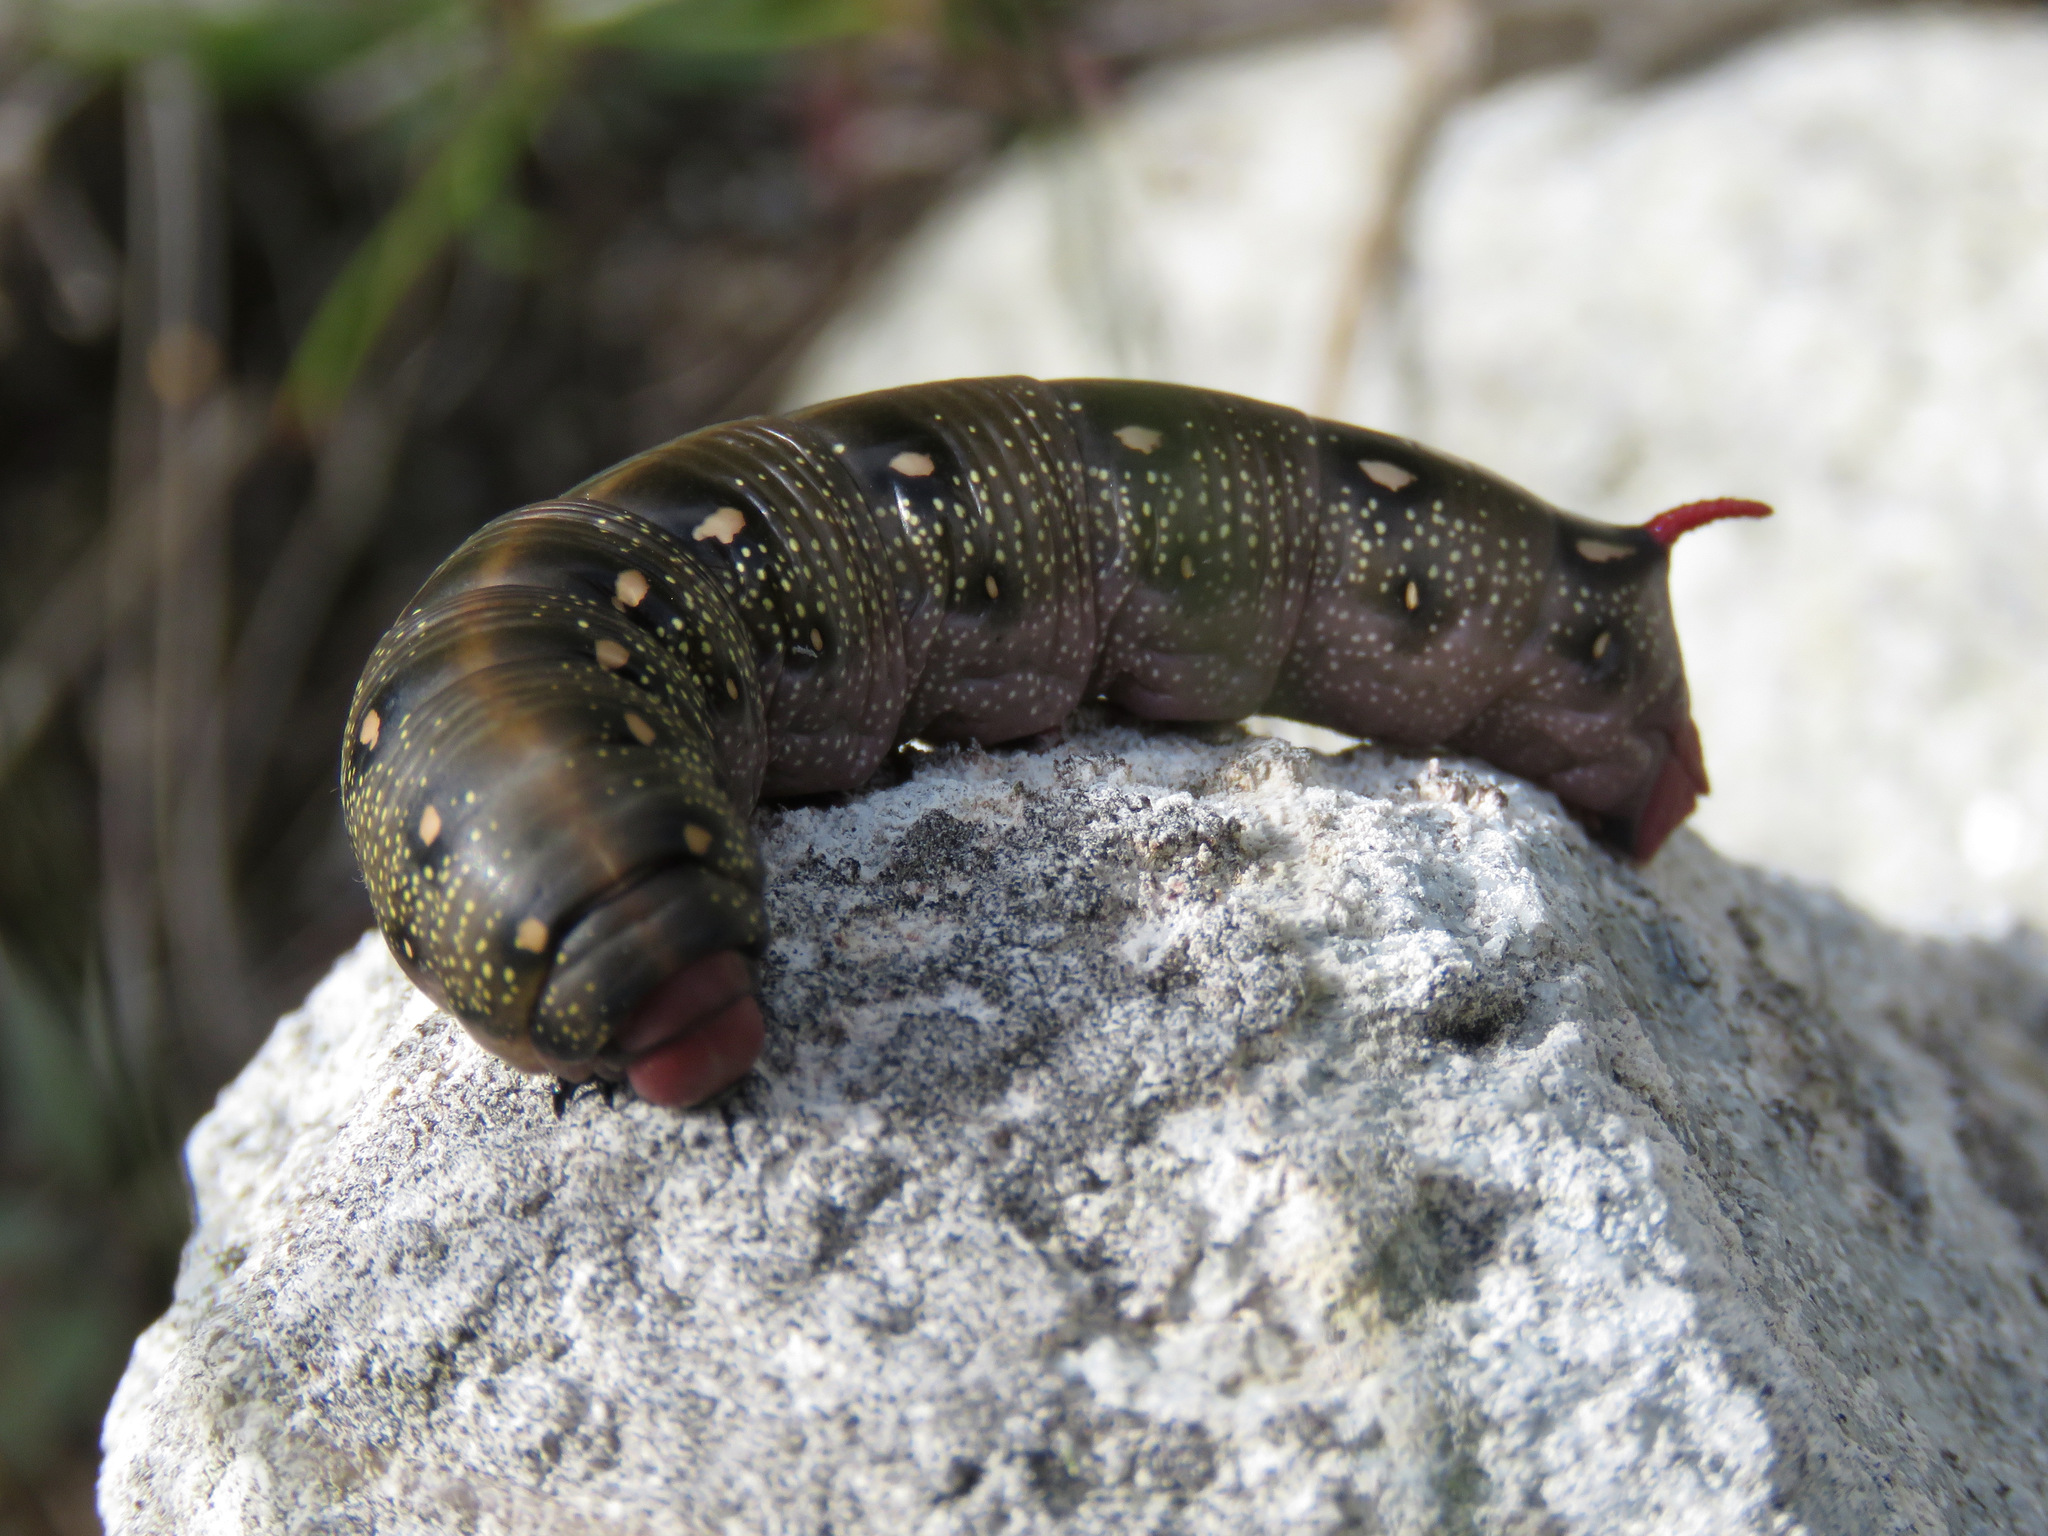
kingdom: Animalia
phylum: Arthropoda
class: Insecta
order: Lepidoptera
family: Sphingidae
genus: Hyles
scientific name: Hyles gallii
